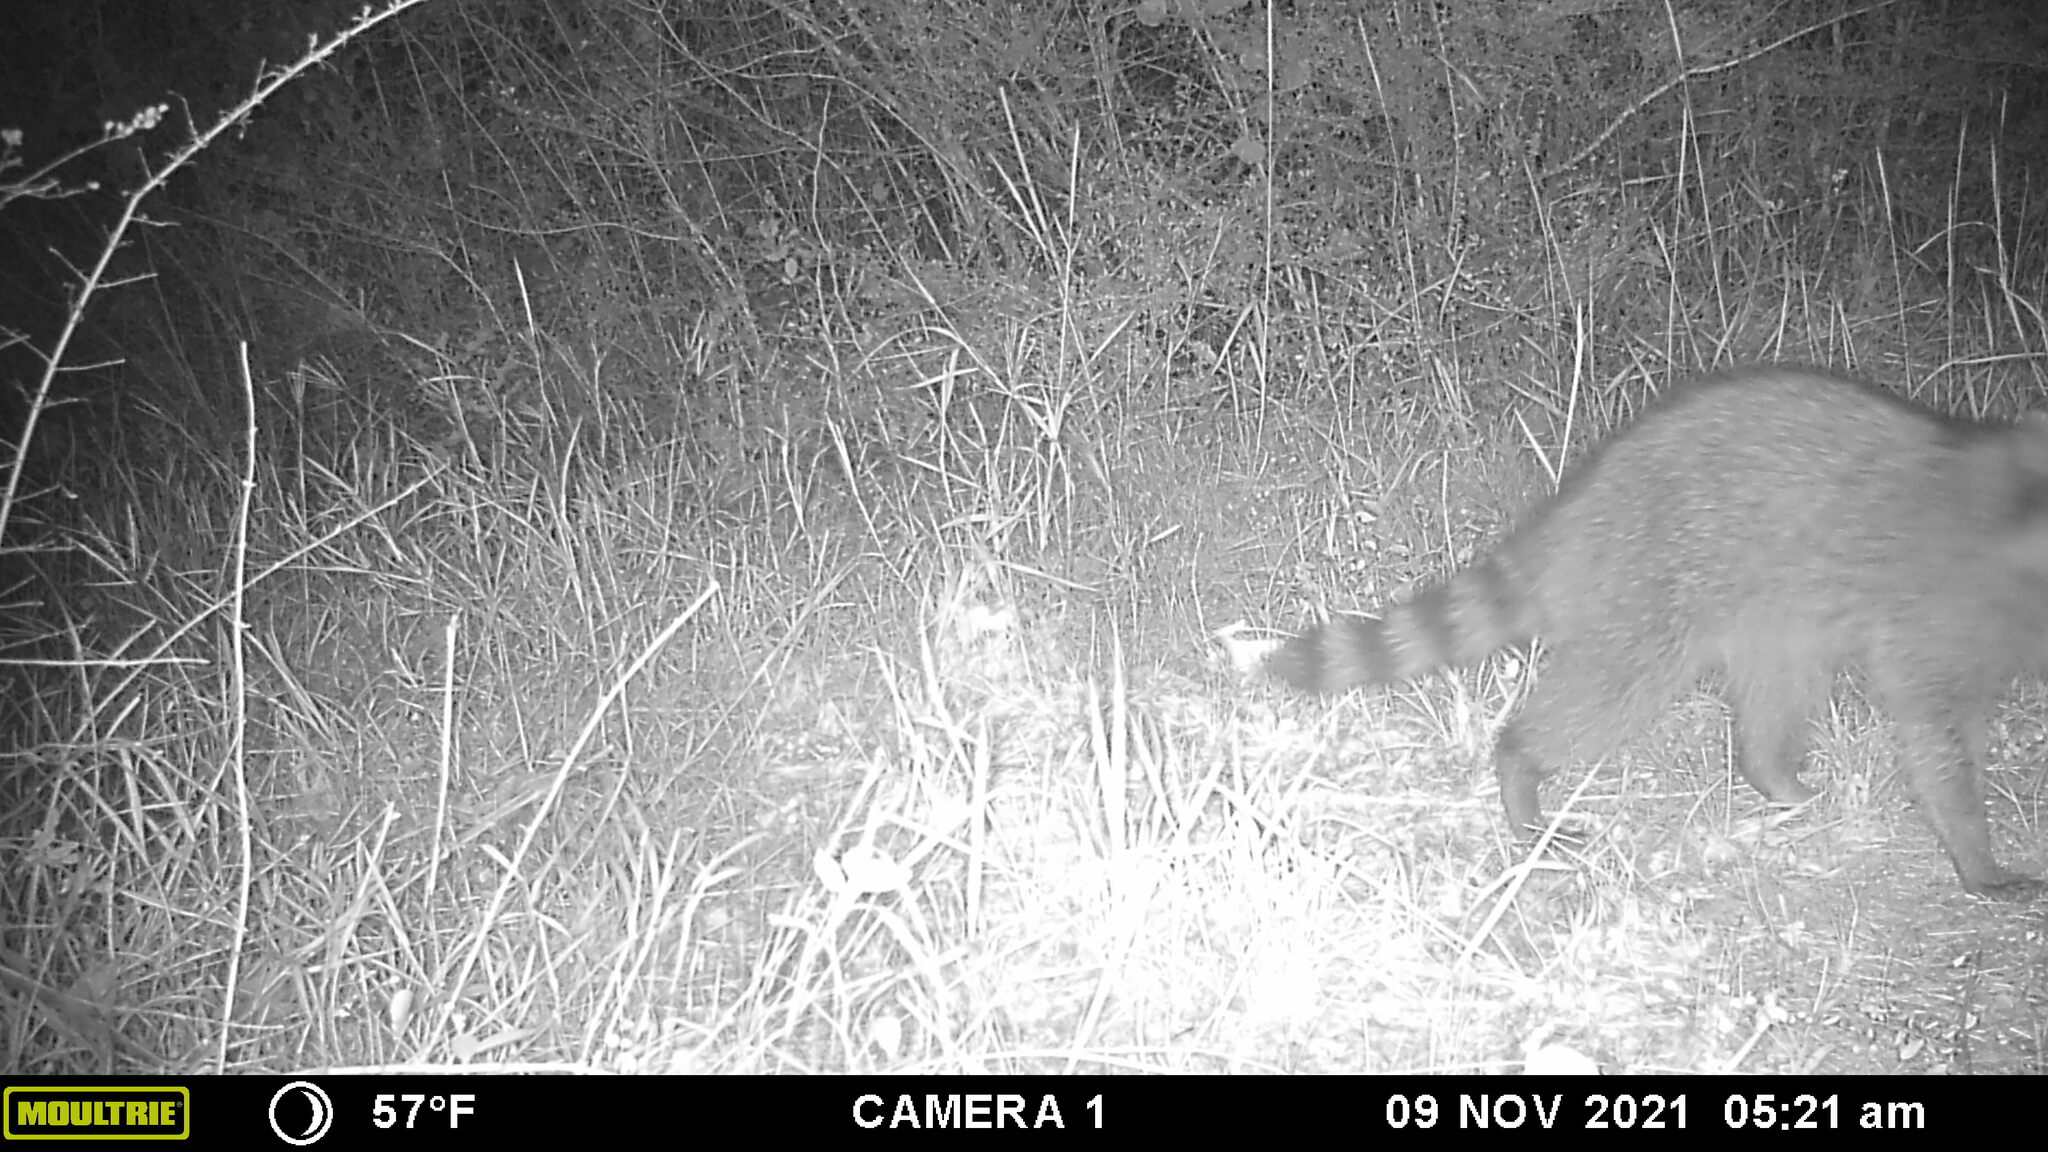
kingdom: Animalia
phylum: Chordata
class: Mammalia
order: Carnivora
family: Procyonidae
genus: Procyon
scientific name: Procyon lotor
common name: Raccoon
